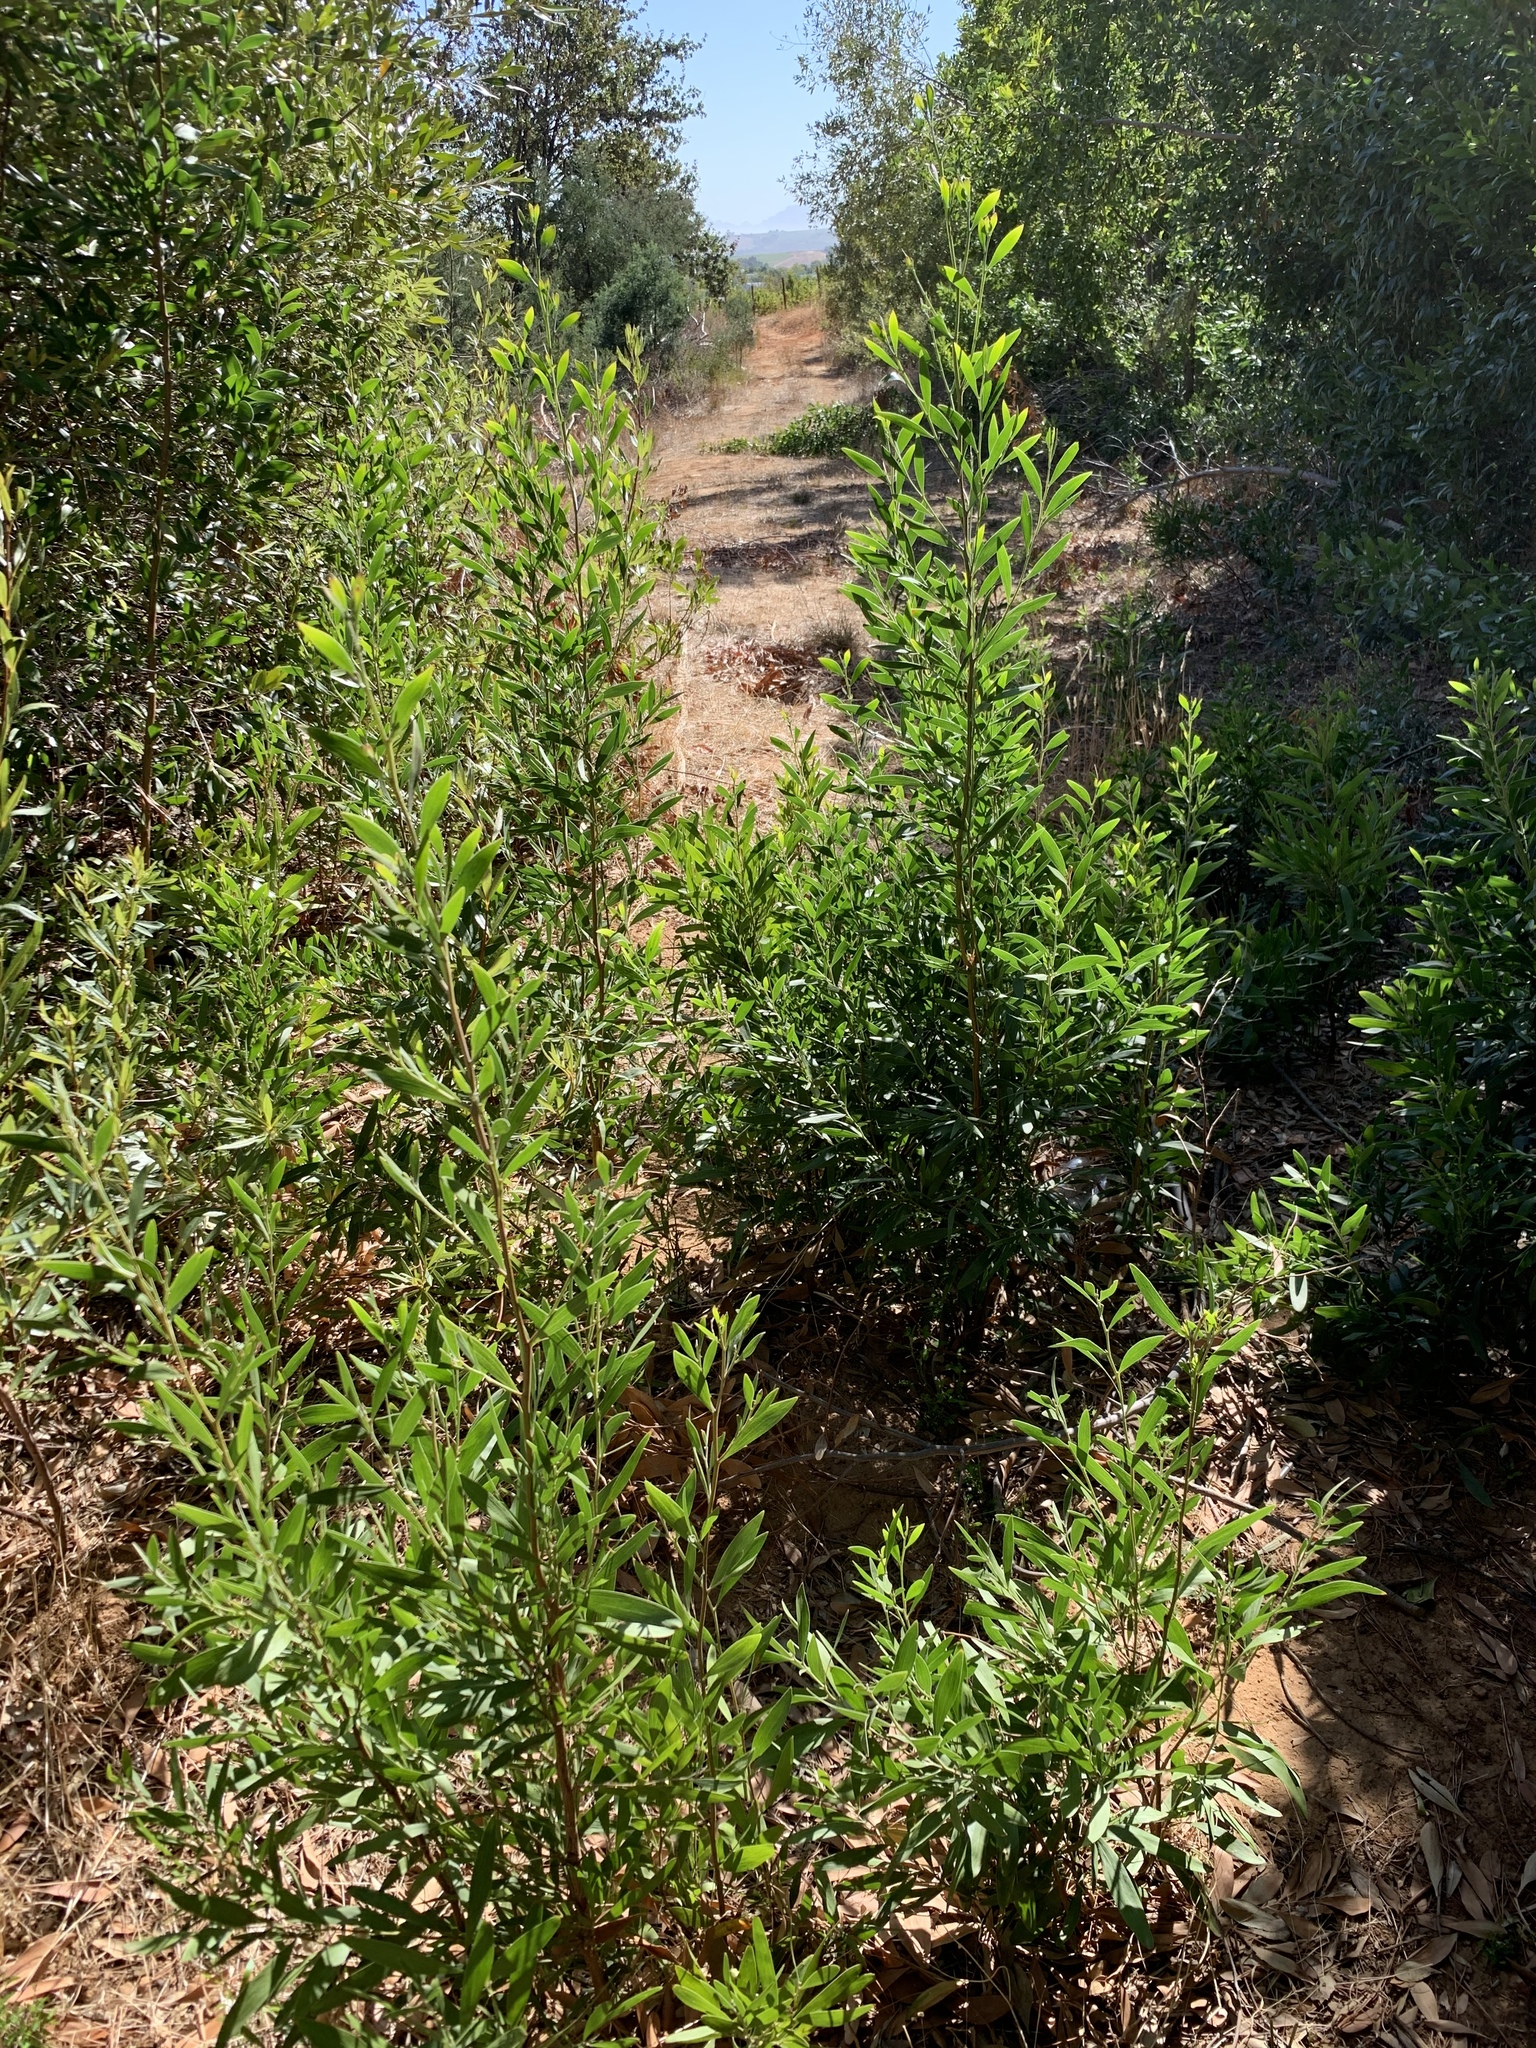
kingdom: Plantae
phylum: Tracheophyta
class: Magnoliopsida
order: Fabales
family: Fabaceae
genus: Acacia
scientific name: Acacia melanoxylon
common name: Blackwood
